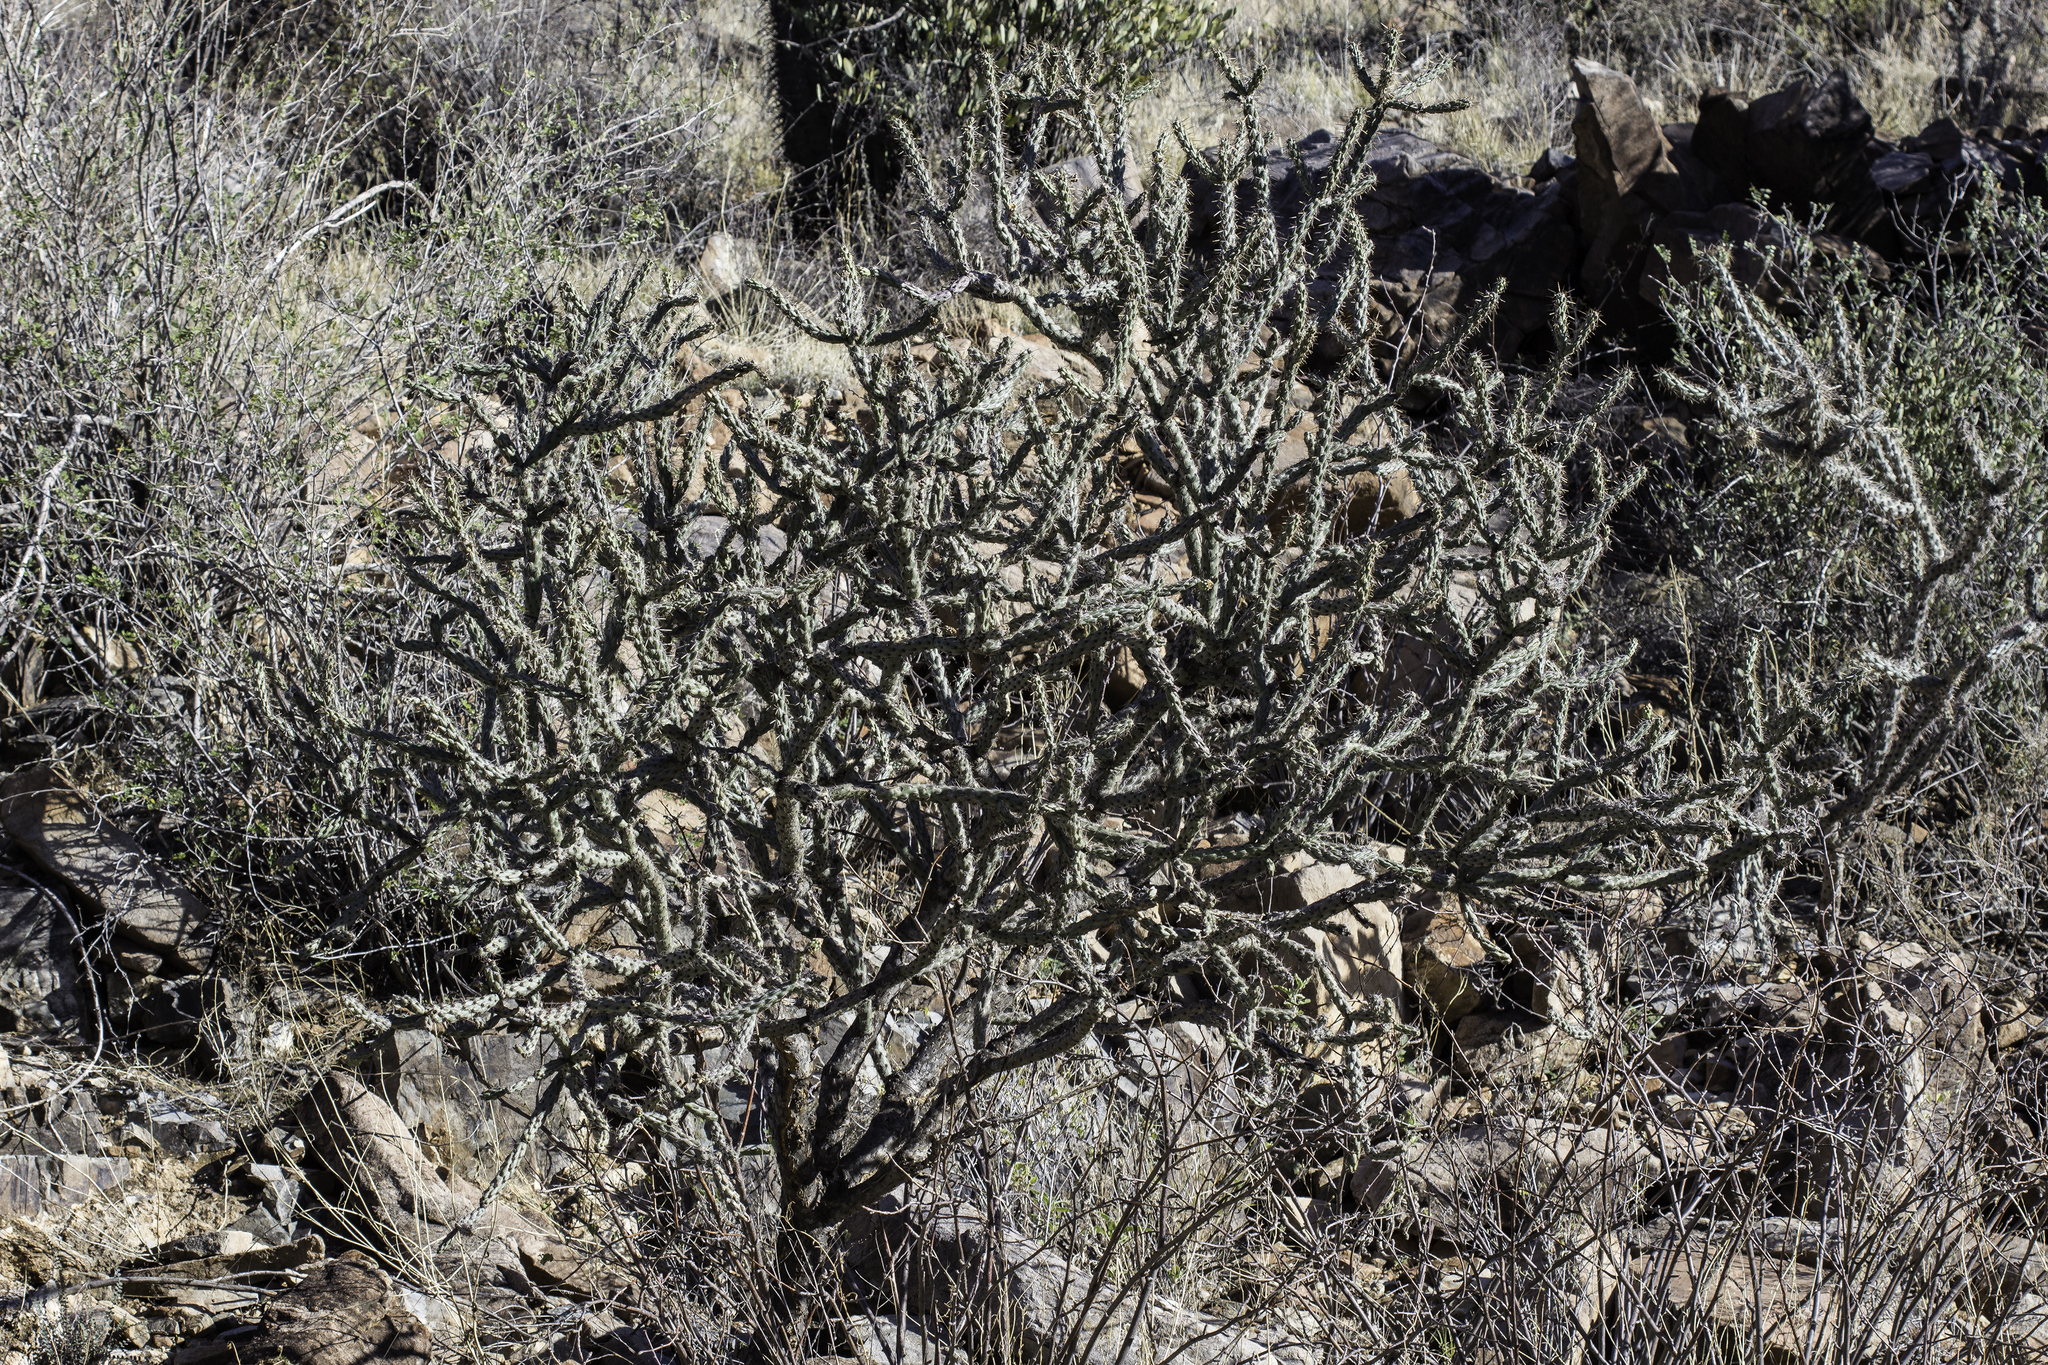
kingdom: Plantae
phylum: Tracheophyta
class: Magnoliopsida
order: Caryophyllales
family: Cactaceae
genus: Cylindropuntia
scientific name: Cylindropuntia thurberi
